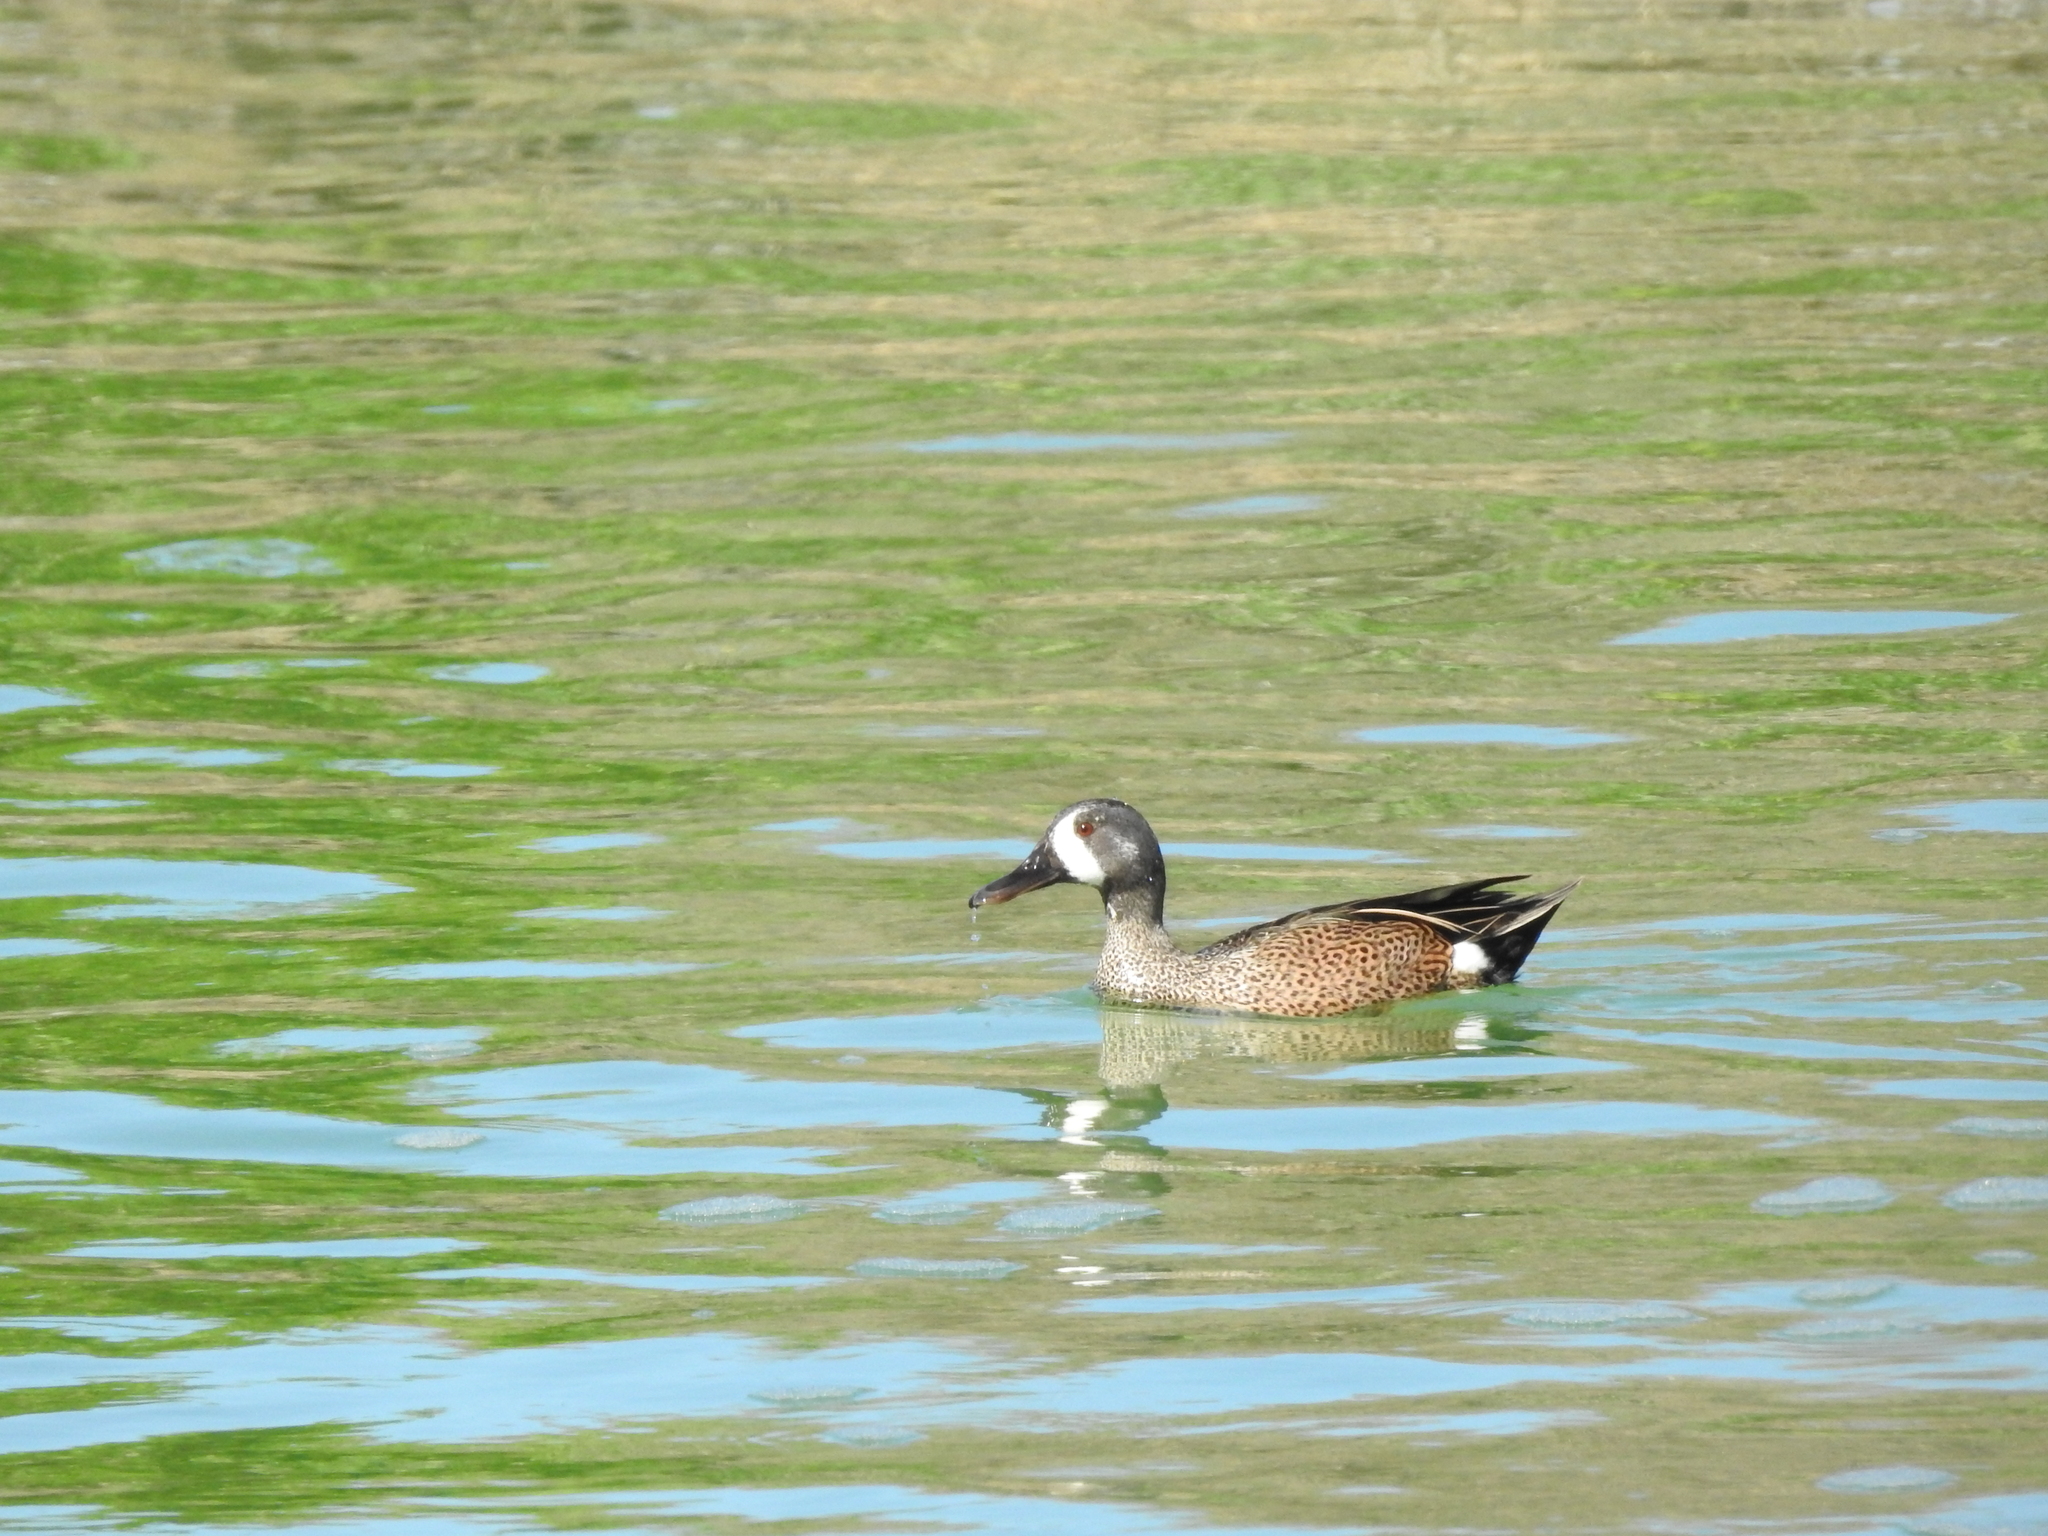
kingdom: Animalia
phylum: Chordata
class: Aves
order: Anseriformes
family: Anatidae
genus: Spatula
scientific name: Spatula discors
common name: Blue-winged teal
